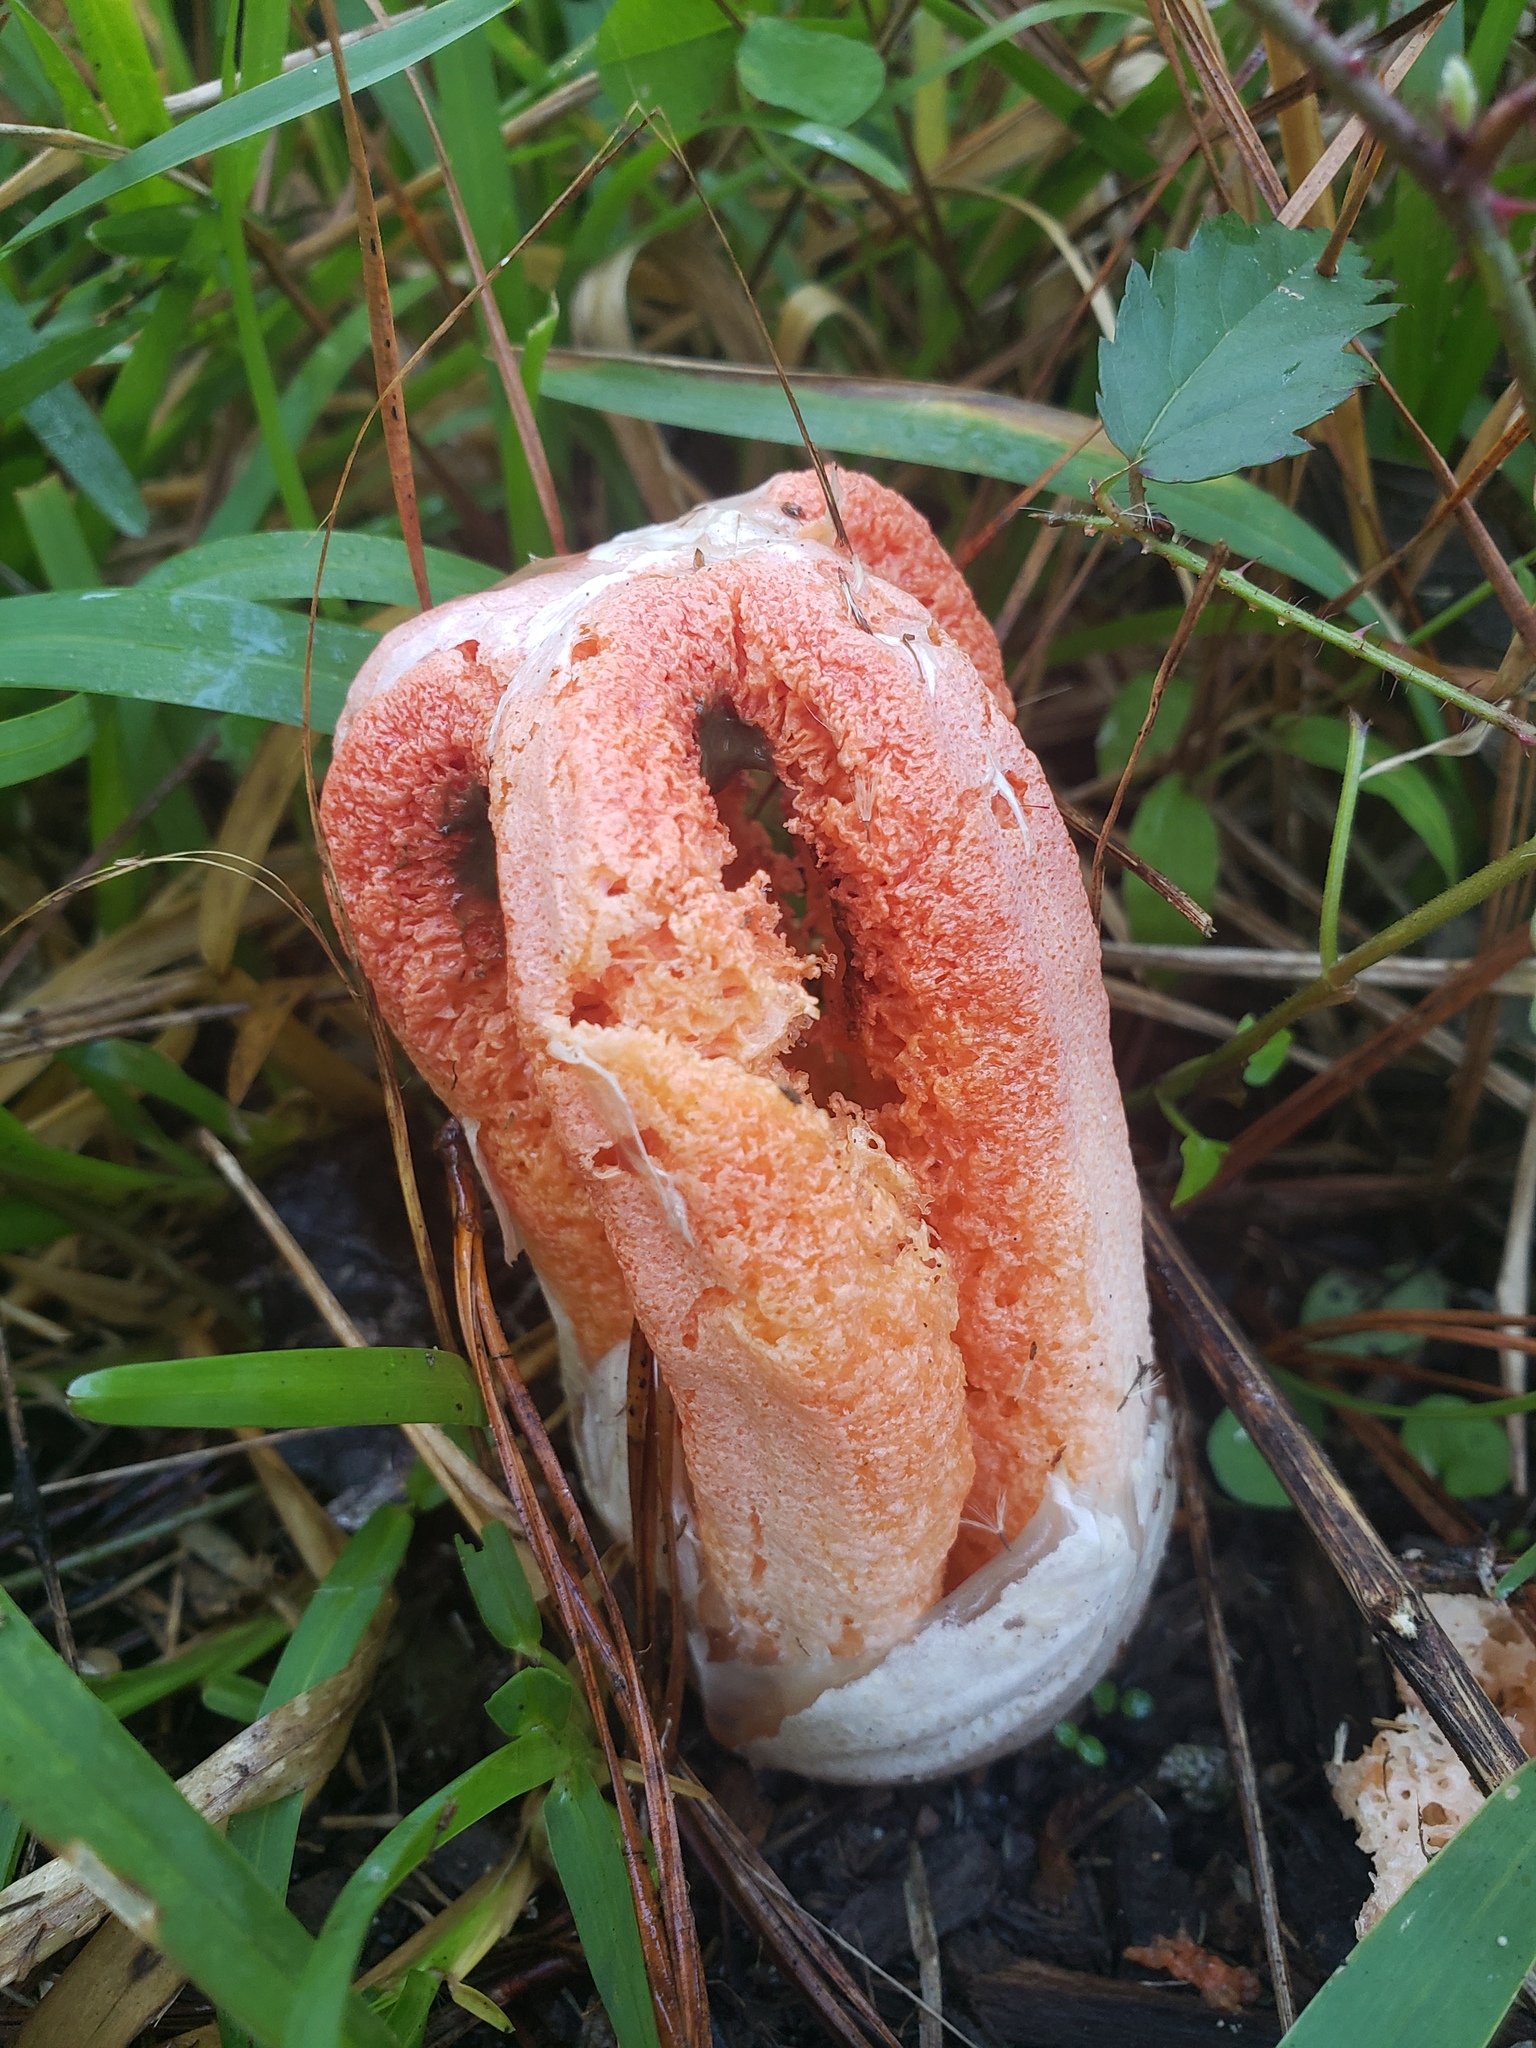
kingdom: Fungi
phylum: Basidiomycota
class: Agaricomycetes
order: Phallales
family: Phallaceae
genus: Clathrus
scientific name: Clathrus columnatus
